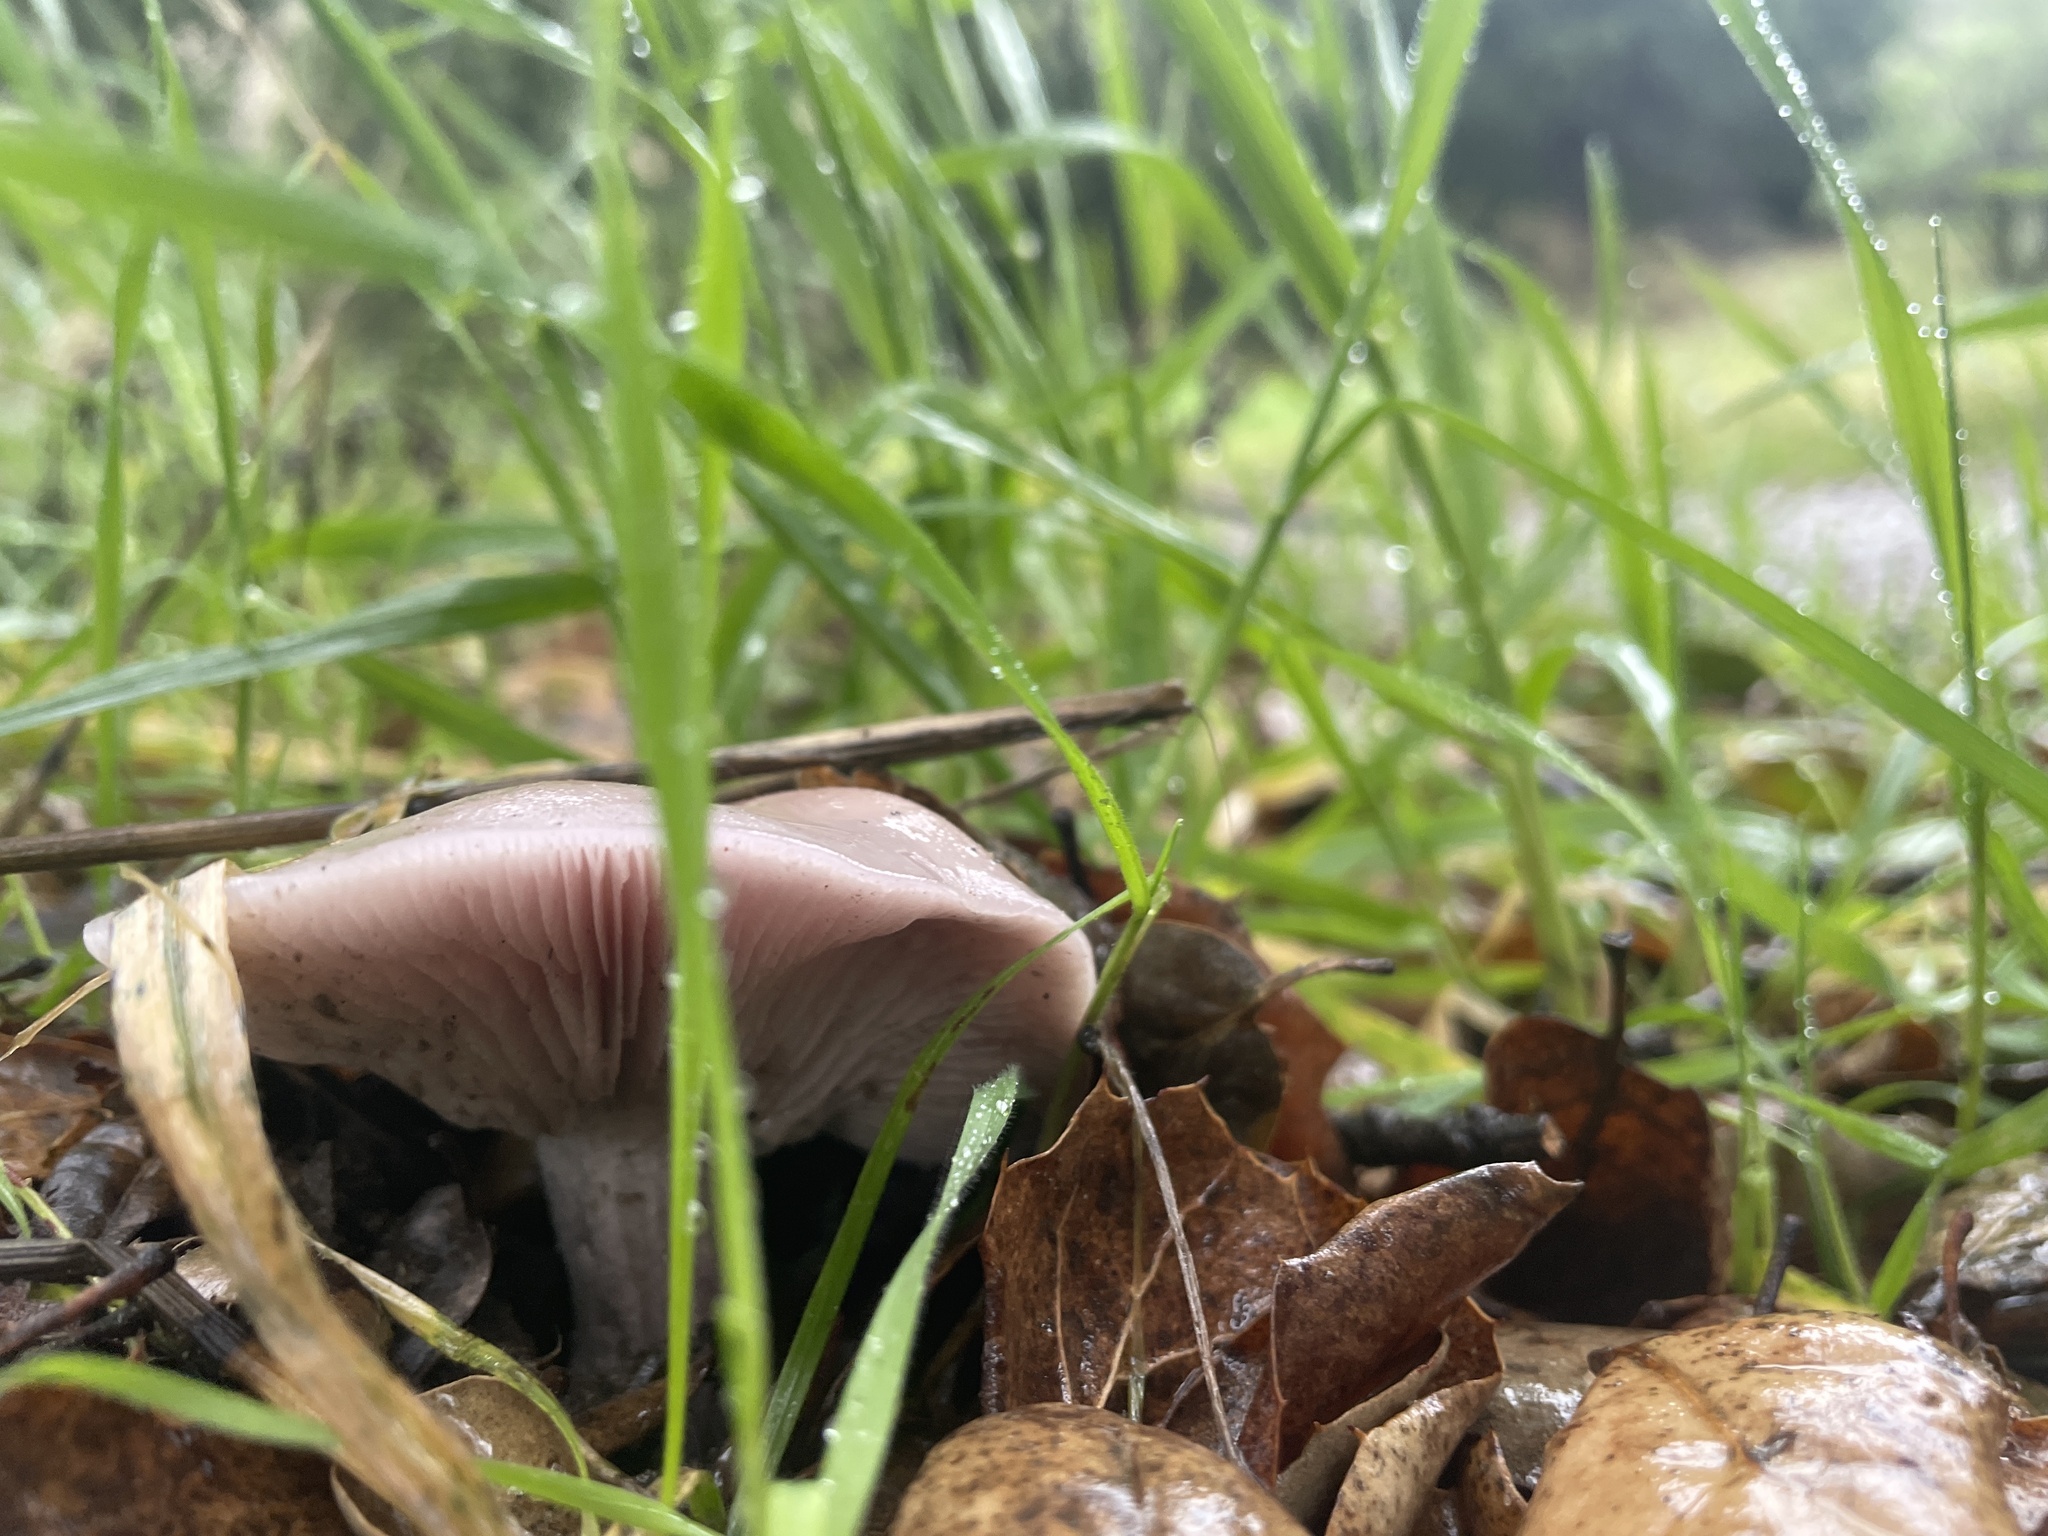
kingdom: Fungi
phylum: Basidiomycota
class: Agaricomycetes
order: Agaricales
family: Tricholomataceae
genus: Collybia
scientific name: Collybia
